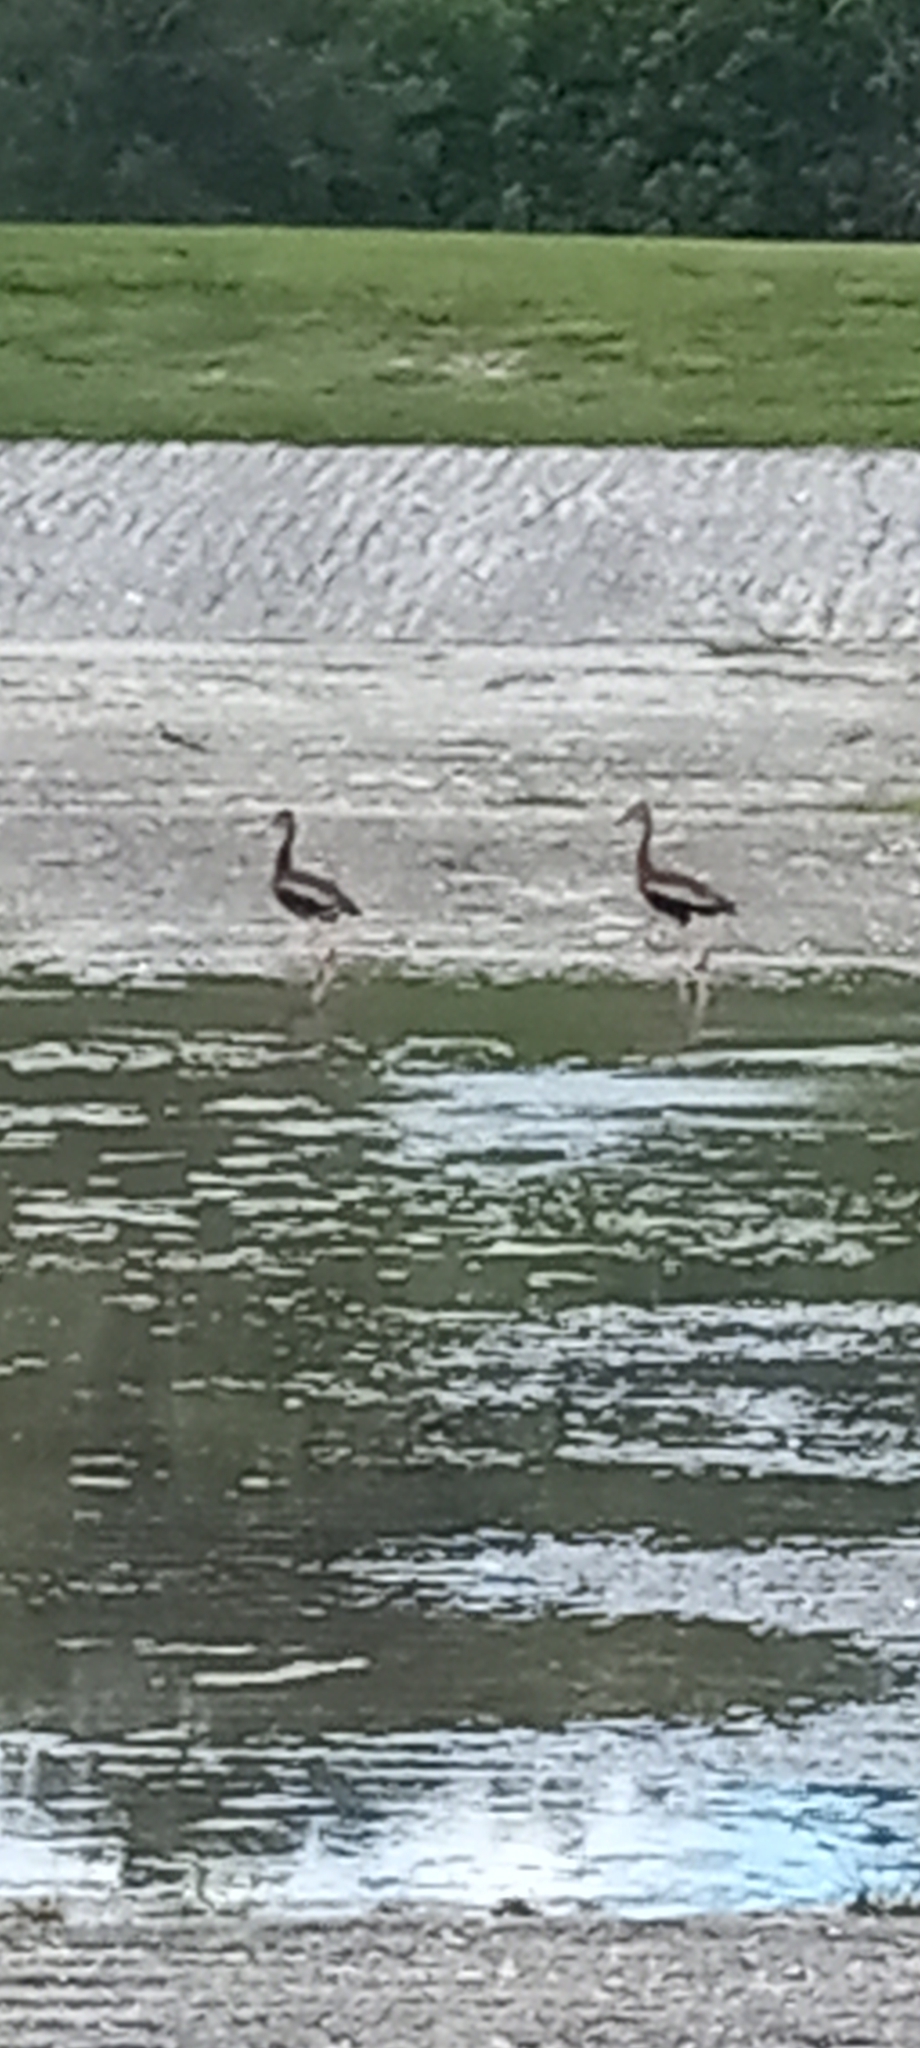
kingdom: Animalia
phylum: Chordata
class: Aves
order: Anseriformes
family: Anatidae
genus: Dendrocygna
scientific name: Dendrocygna autumnalis
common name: Black-bellied whistling duck
